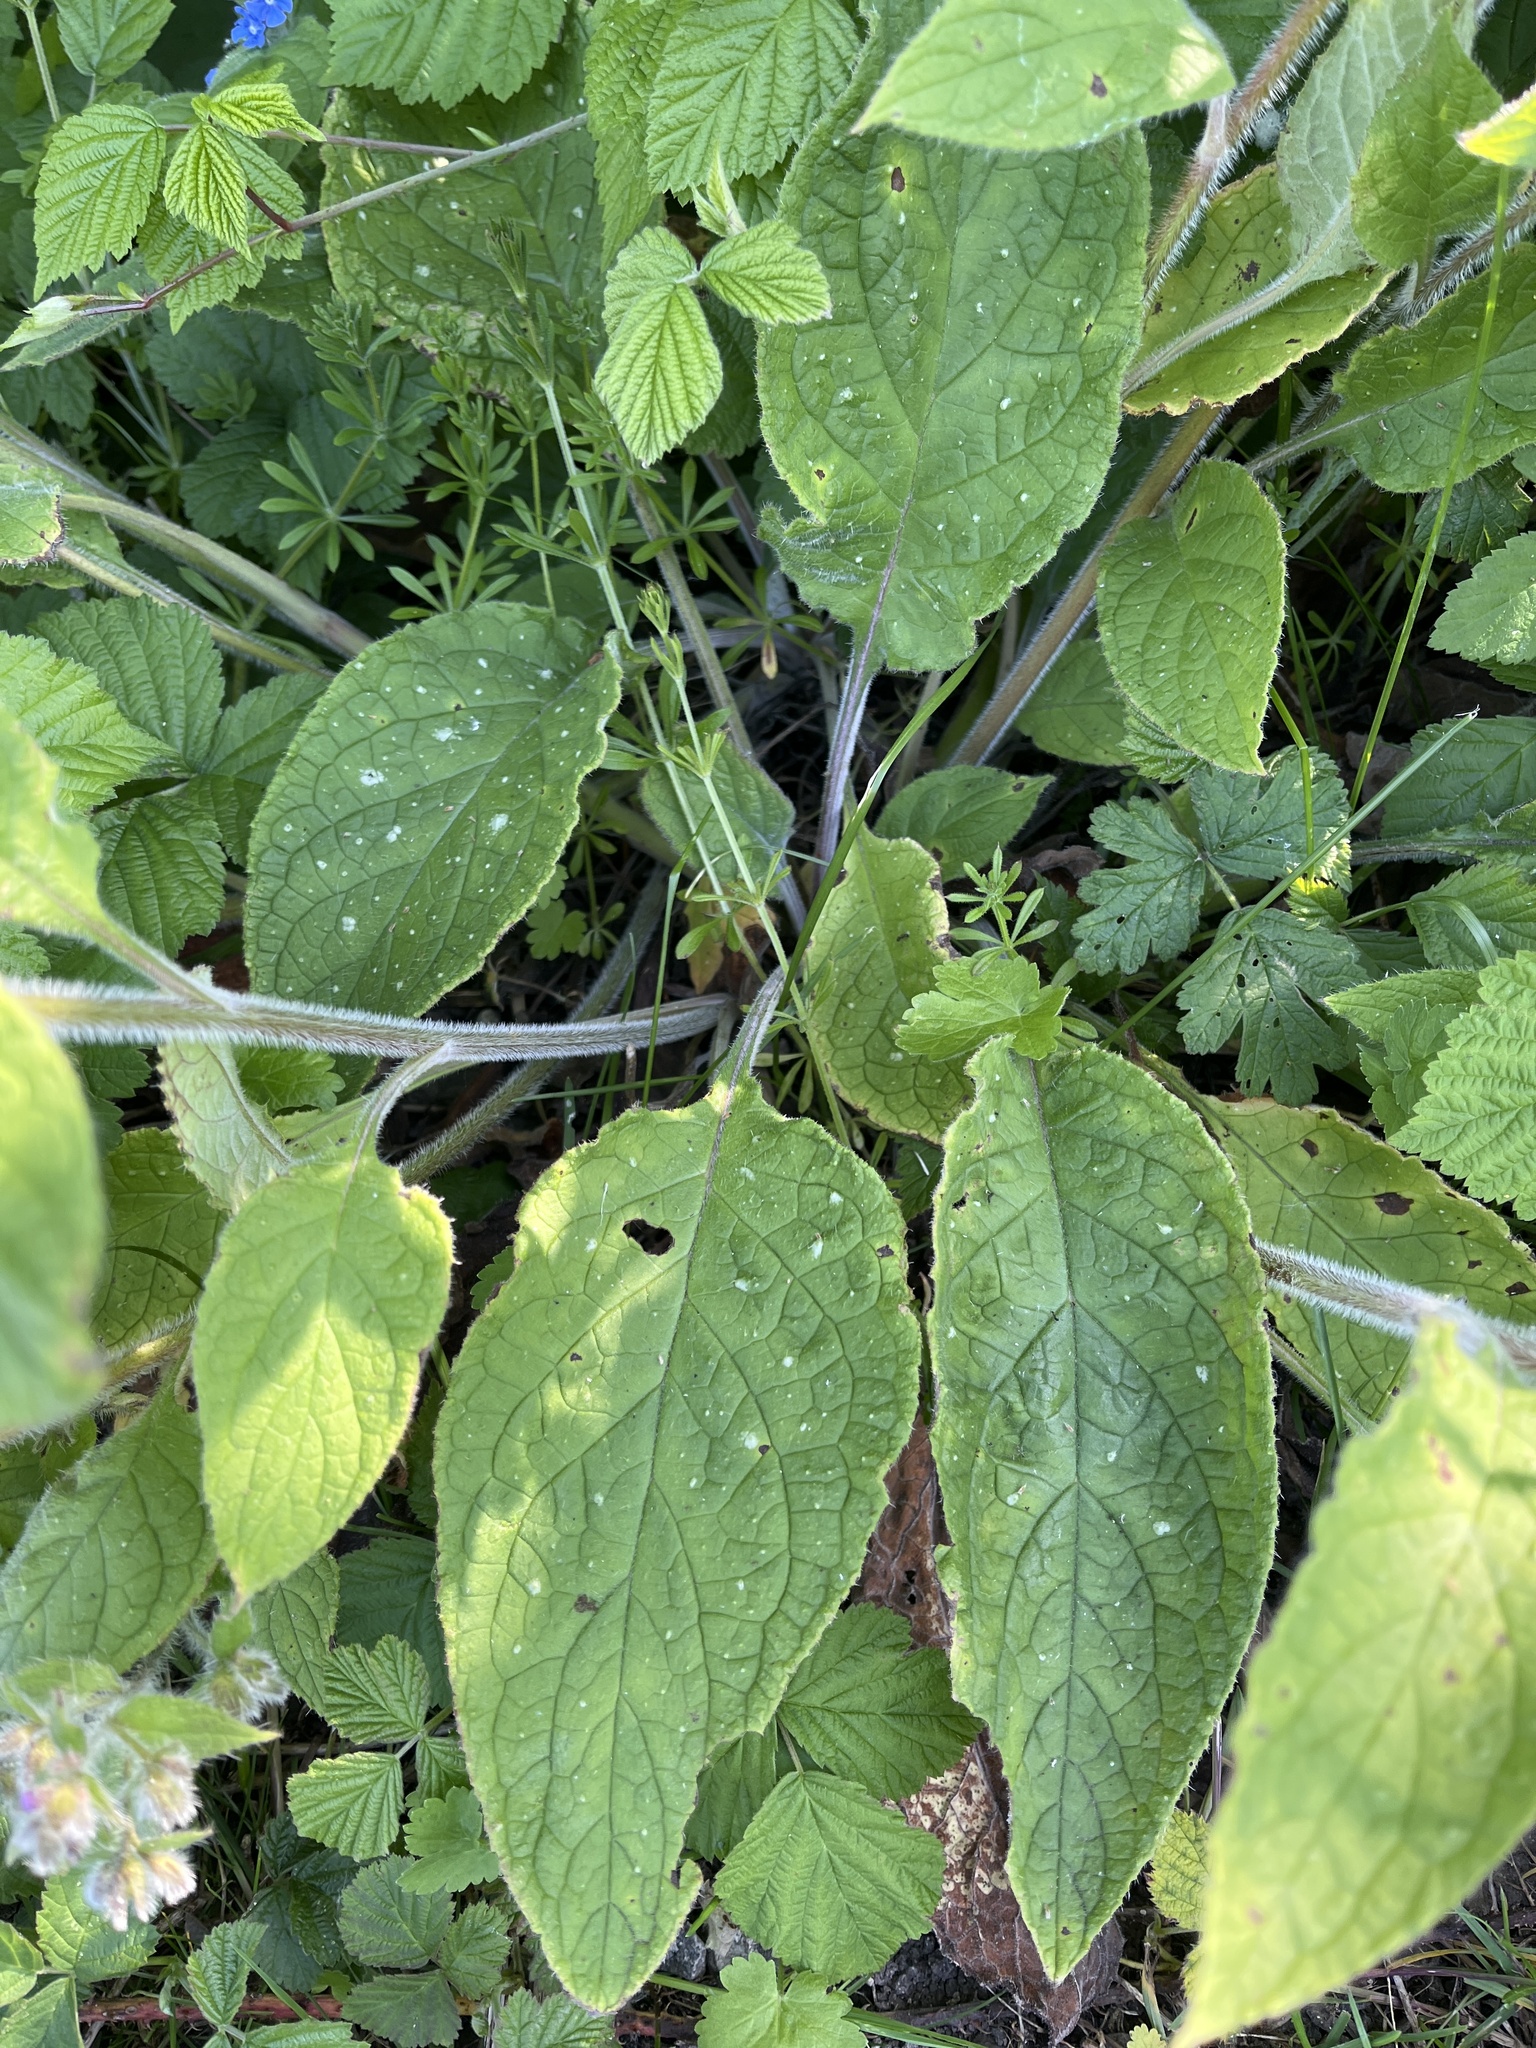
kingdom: Plantae
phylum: Tracheophyta
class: Magnoliopsida
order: Boraginales
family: Boraginaceae
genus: Pentaglottis
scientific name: Pentaglottis sempervirens
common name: Green alkanet
